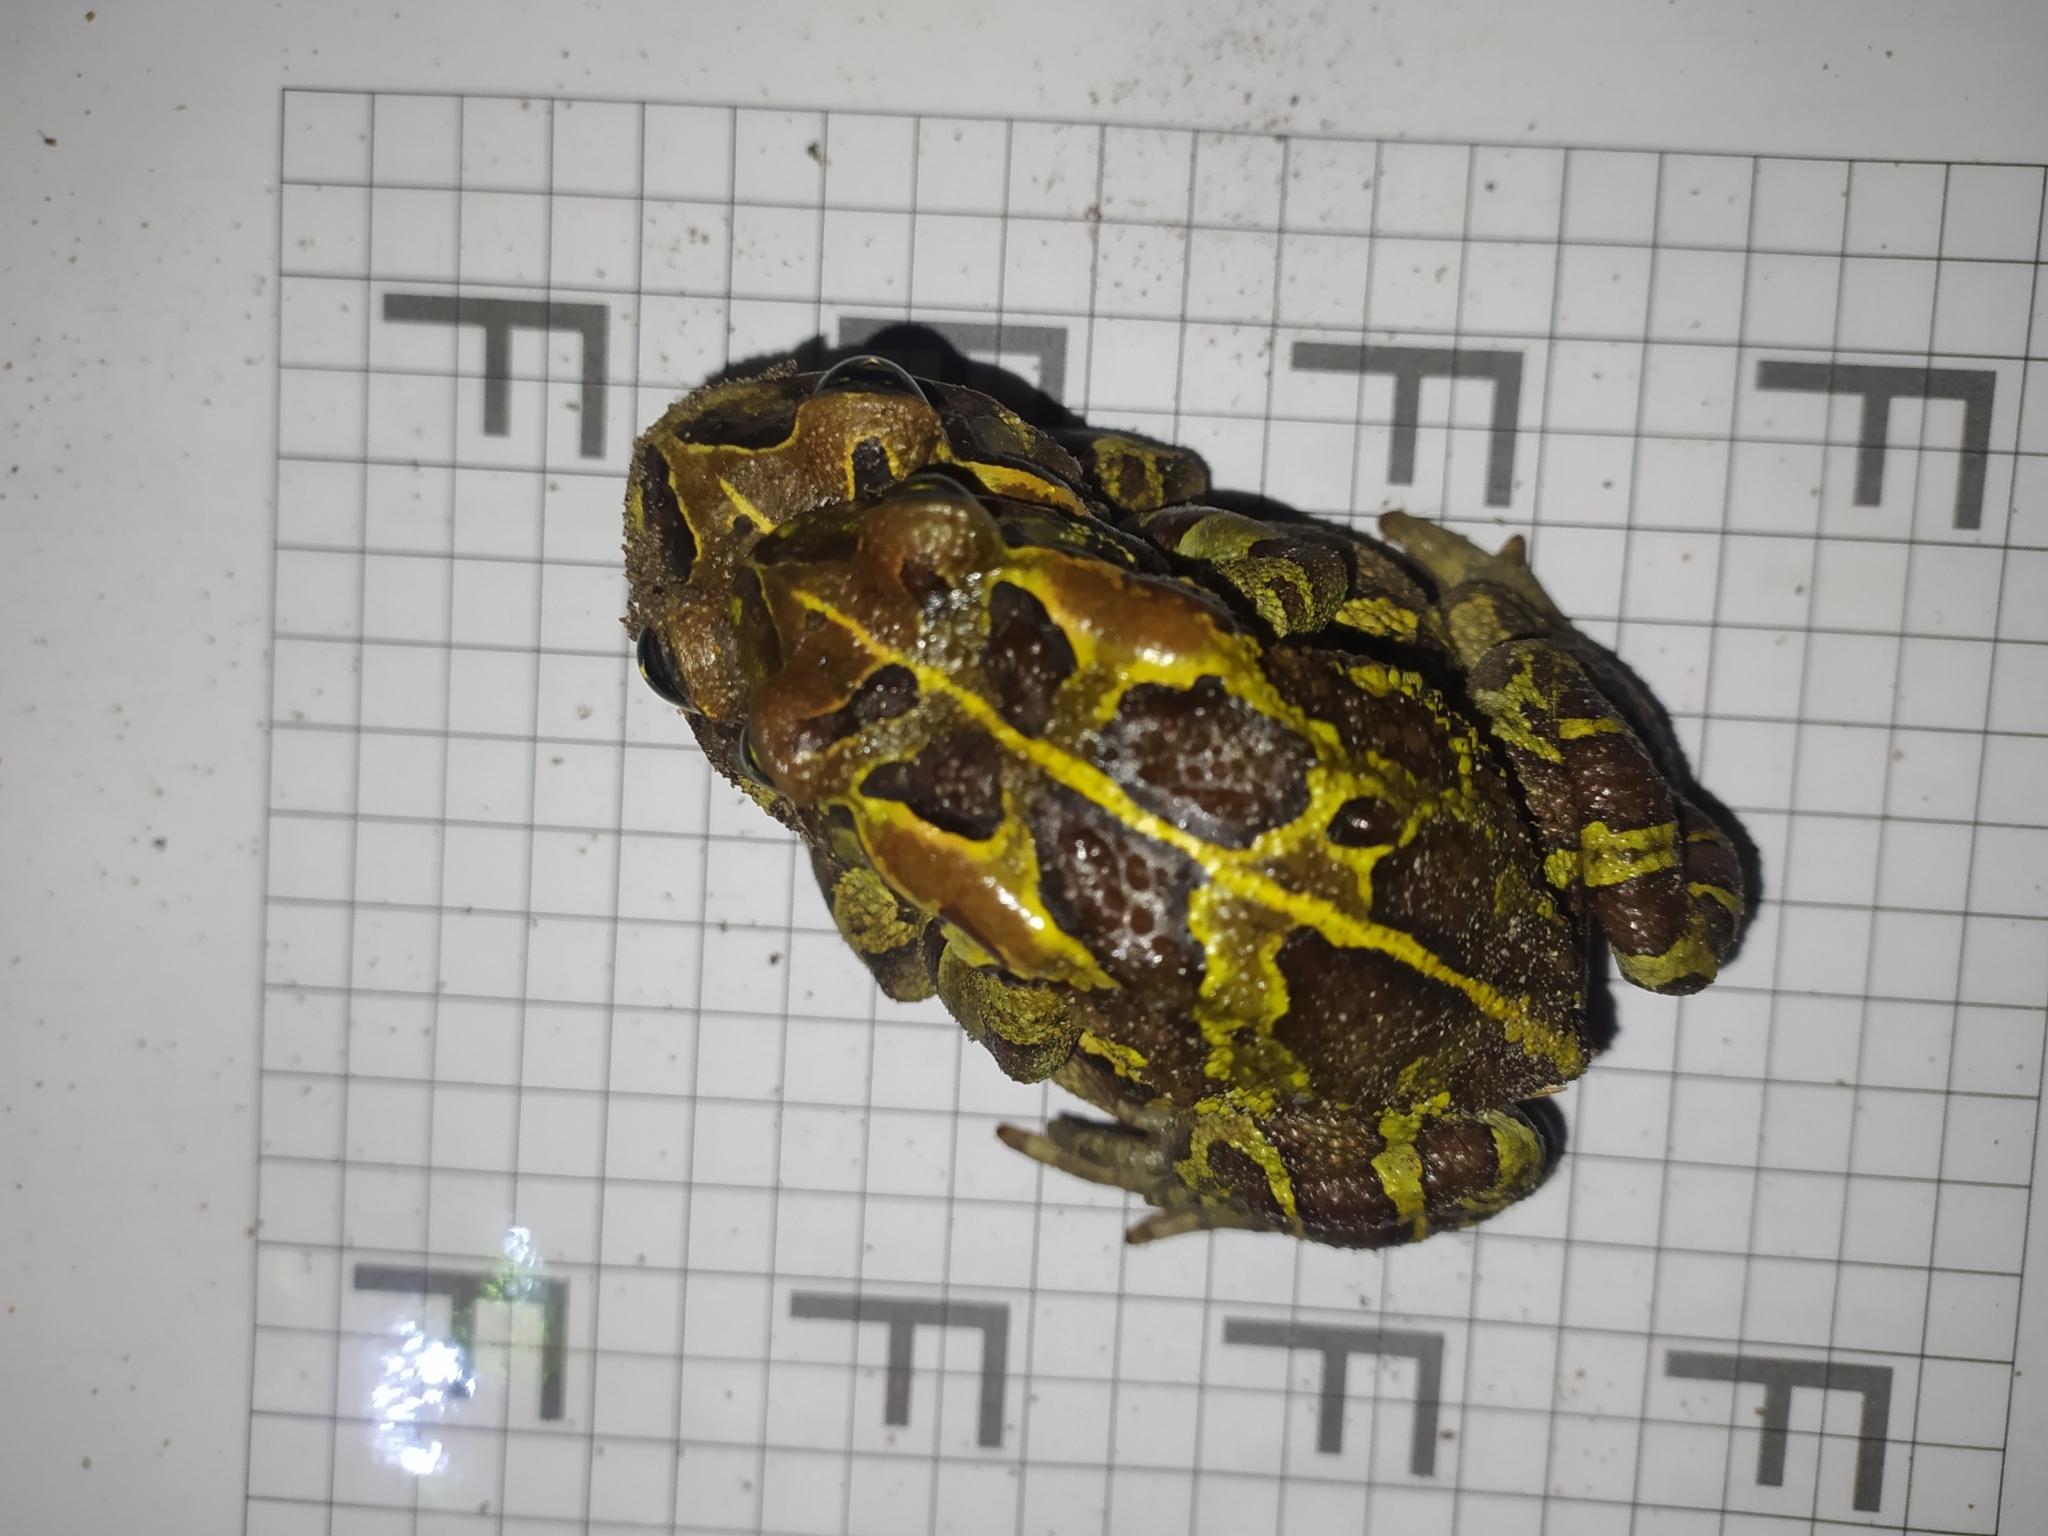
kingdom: Animalia
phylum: Chordata
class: Amphibia
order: Anura
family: Bufonidae
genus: Sclerophrys
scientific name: Sclerophrys pantherina
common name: Panther toad
